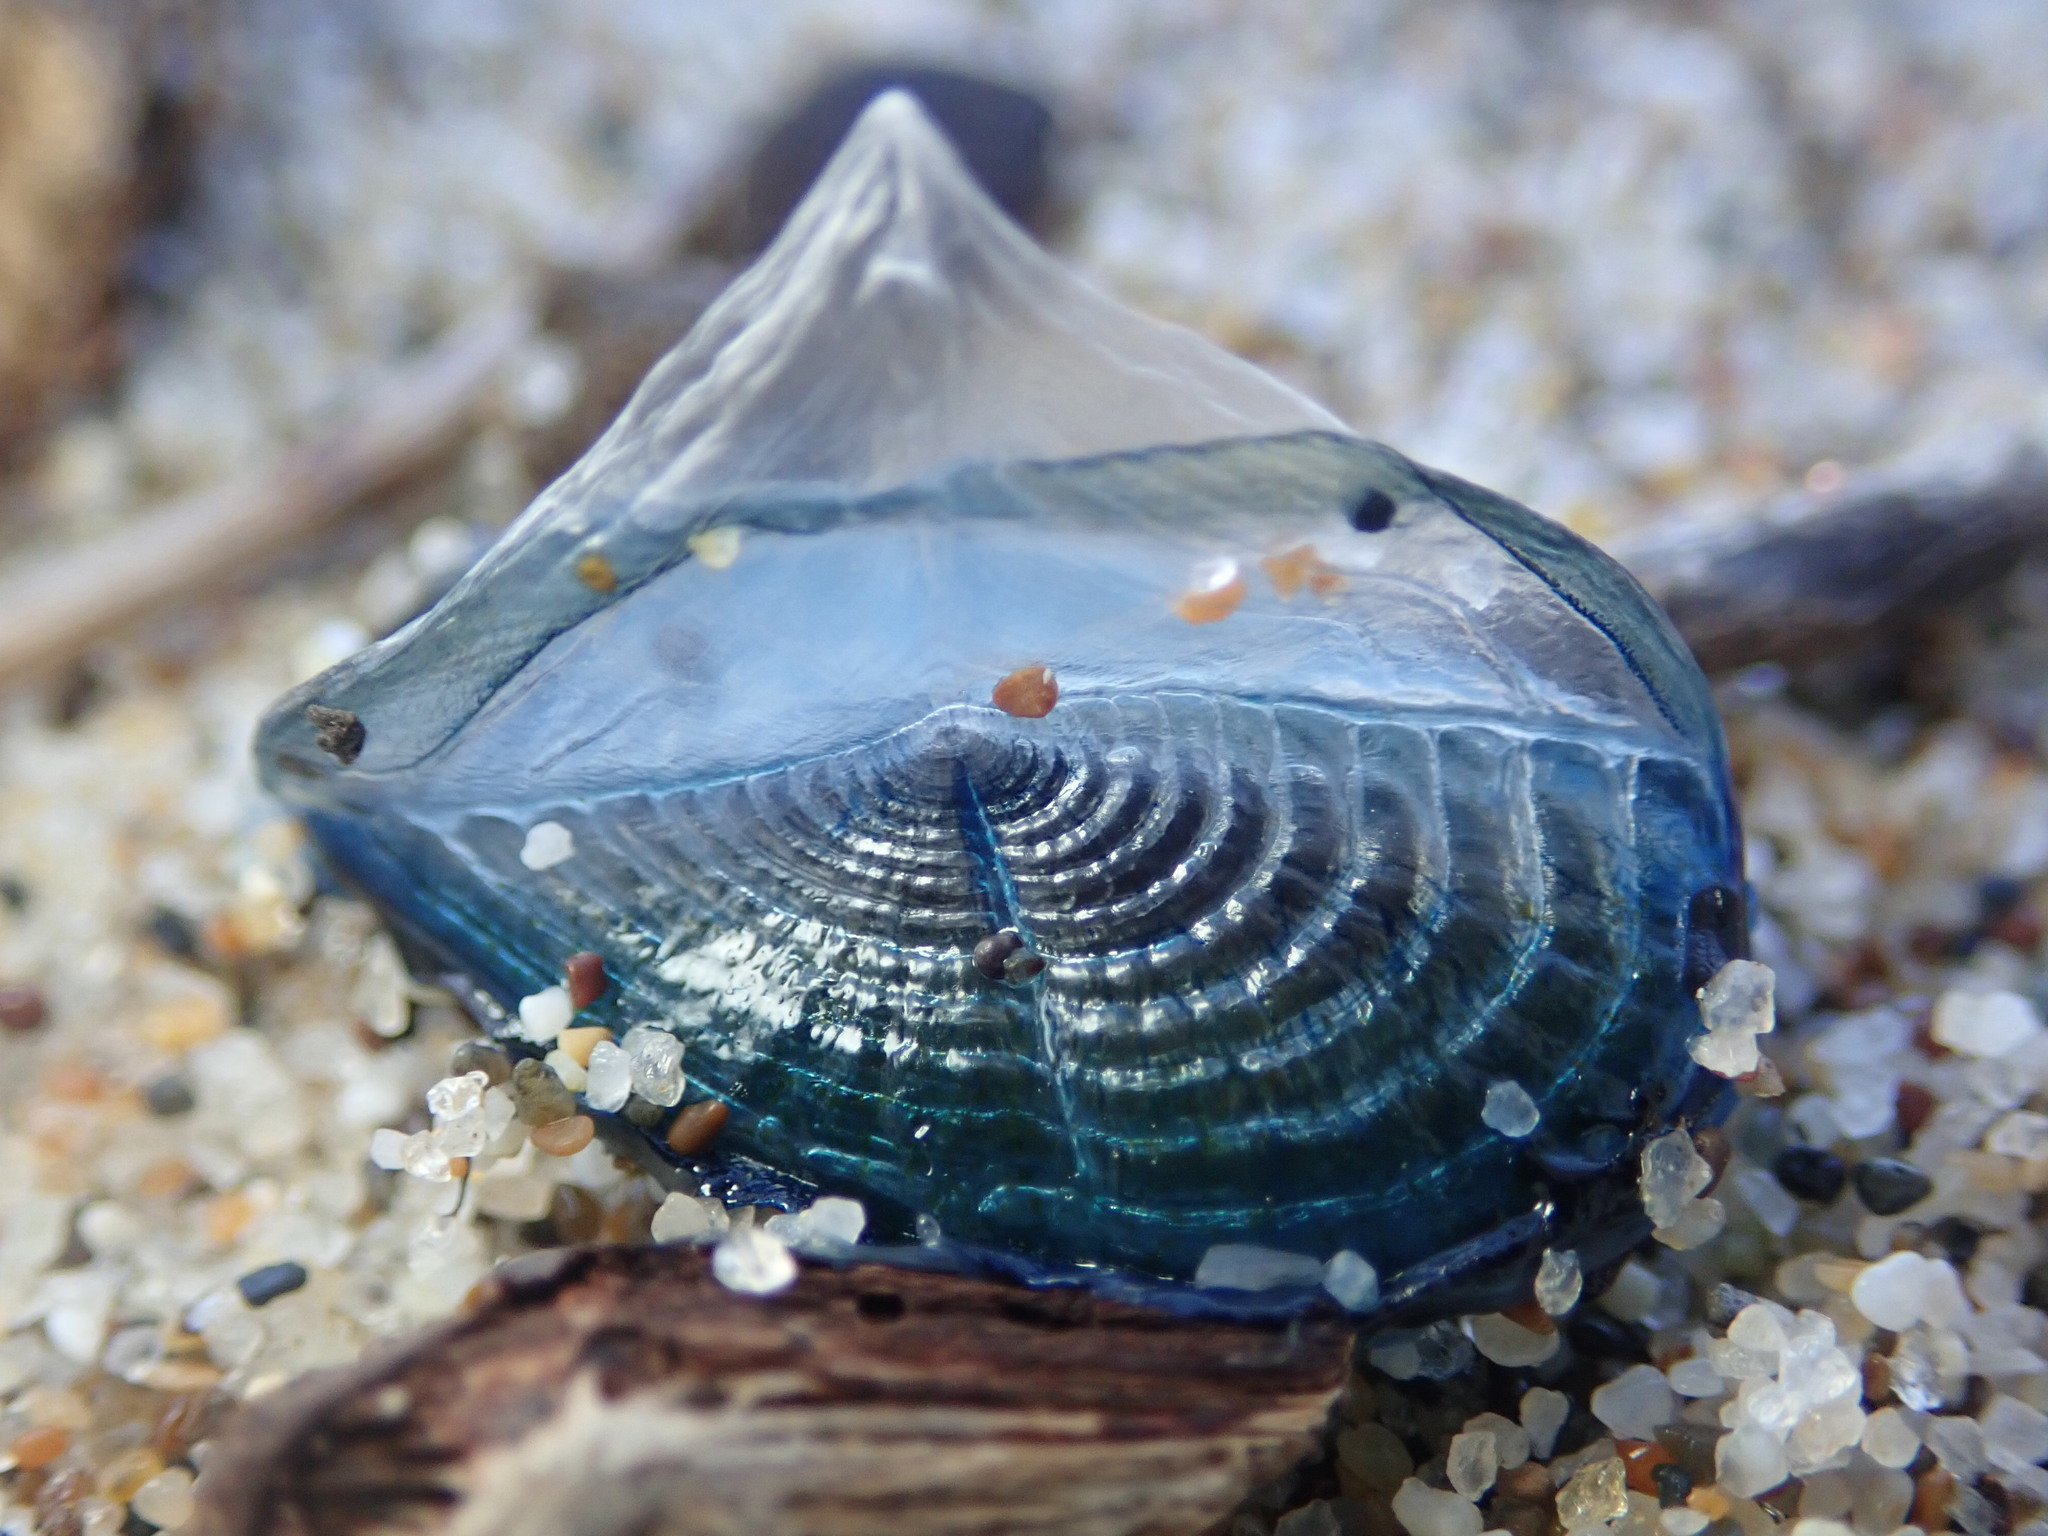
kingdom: Animalia
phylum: Cnidaria
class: Hydrozoa
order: Anthoathecata
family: Porpitidae
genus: Velella
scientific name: Velella velella
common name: By-the-wind-sailor
